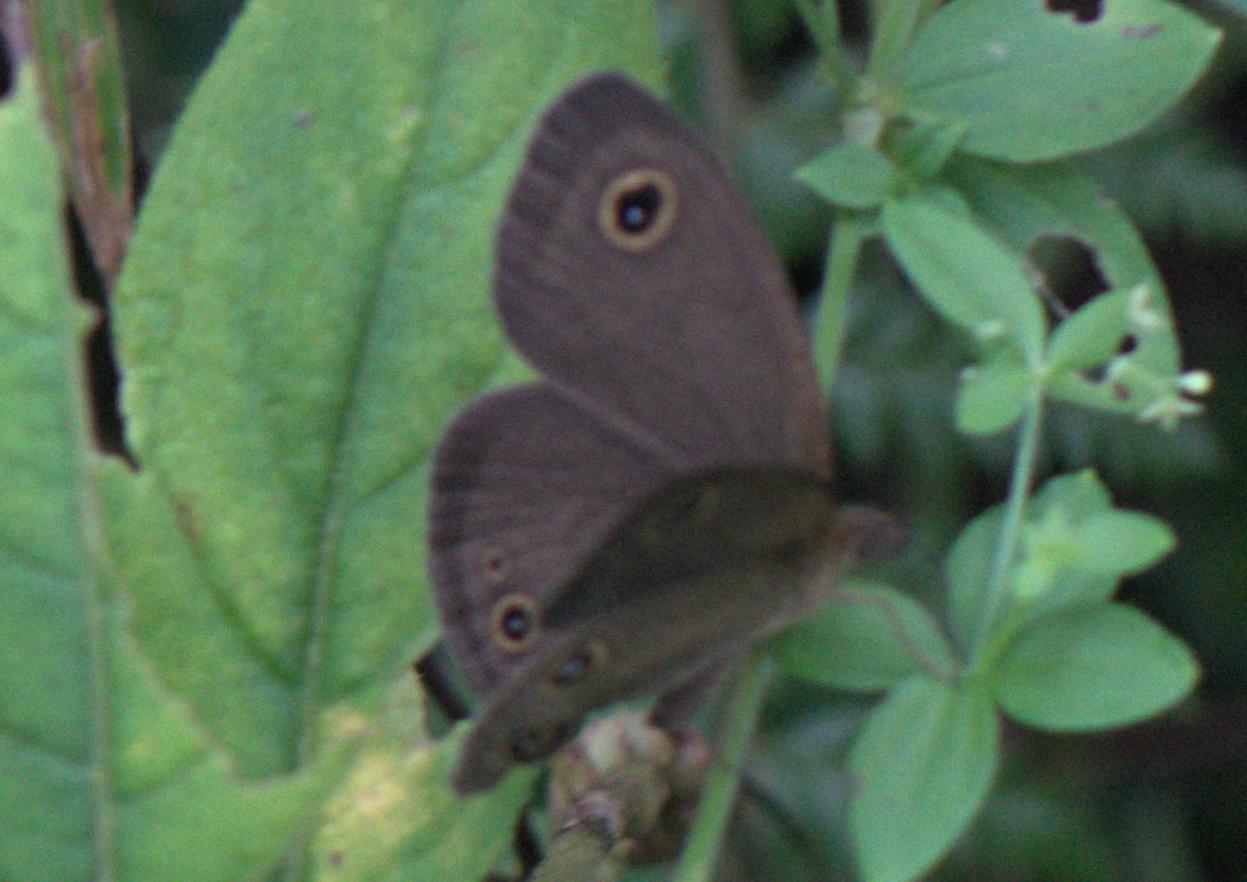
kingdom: Animalia
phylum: Arthropoda
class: Insecta
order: Lepidoptera
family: Nymphalidae
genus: Ypthima
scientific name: Ypthima nikaea
